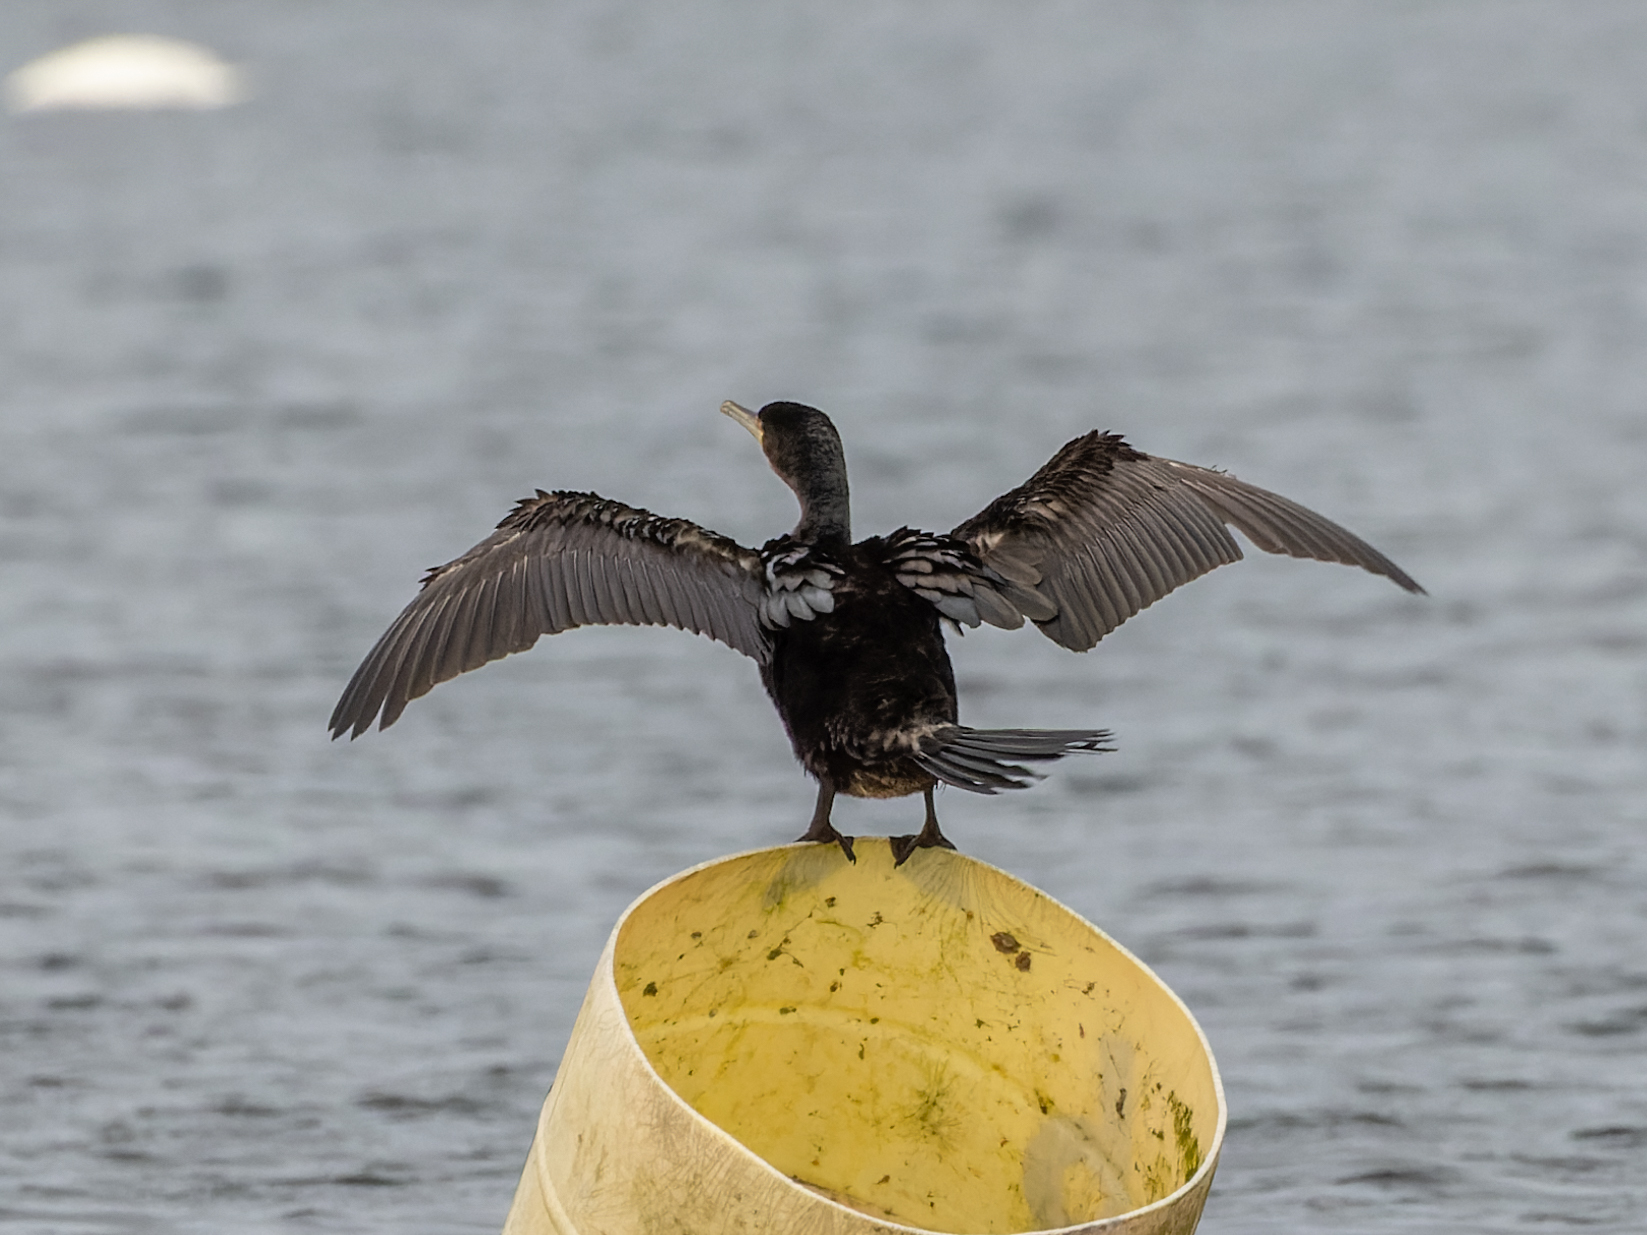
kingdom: Animalia
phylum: Chordata
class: Aves
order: Suliformes
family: Phalacrocoracidae
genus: Phalacrocorax
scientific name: Phalacrocorax carbo
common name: Great cormorant
